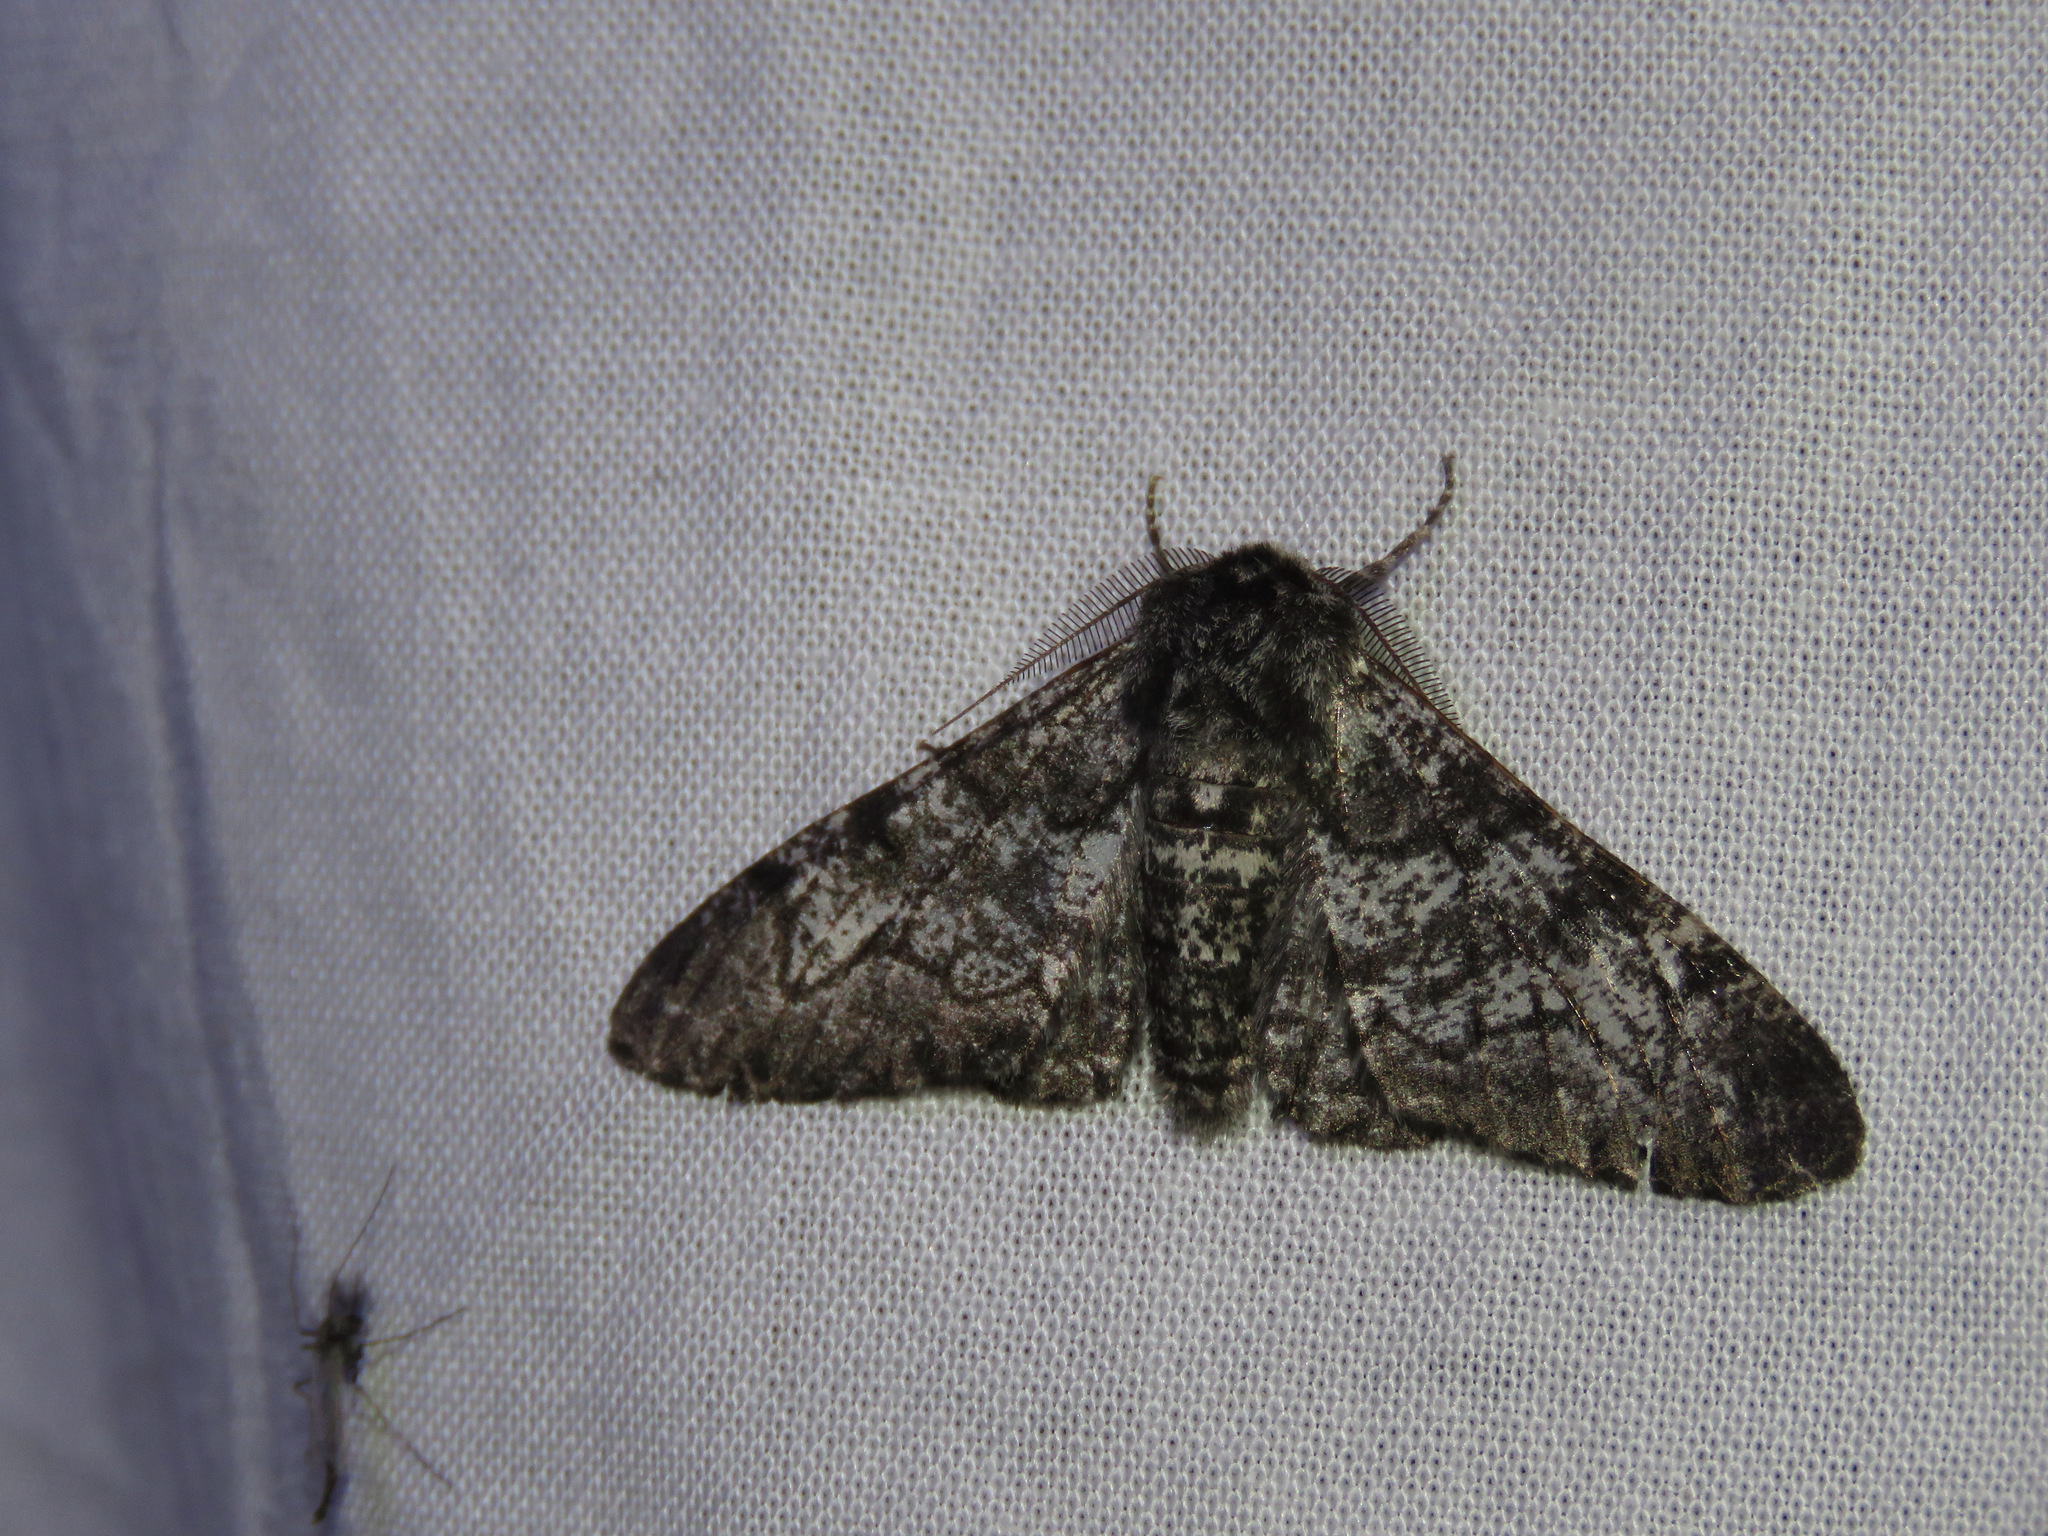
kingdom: Animalia
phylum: Arthropoda
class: Insecta
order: Lepidoptera
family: Geometridae
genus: Biston
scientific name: Biston betularia
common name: Peppered moth
